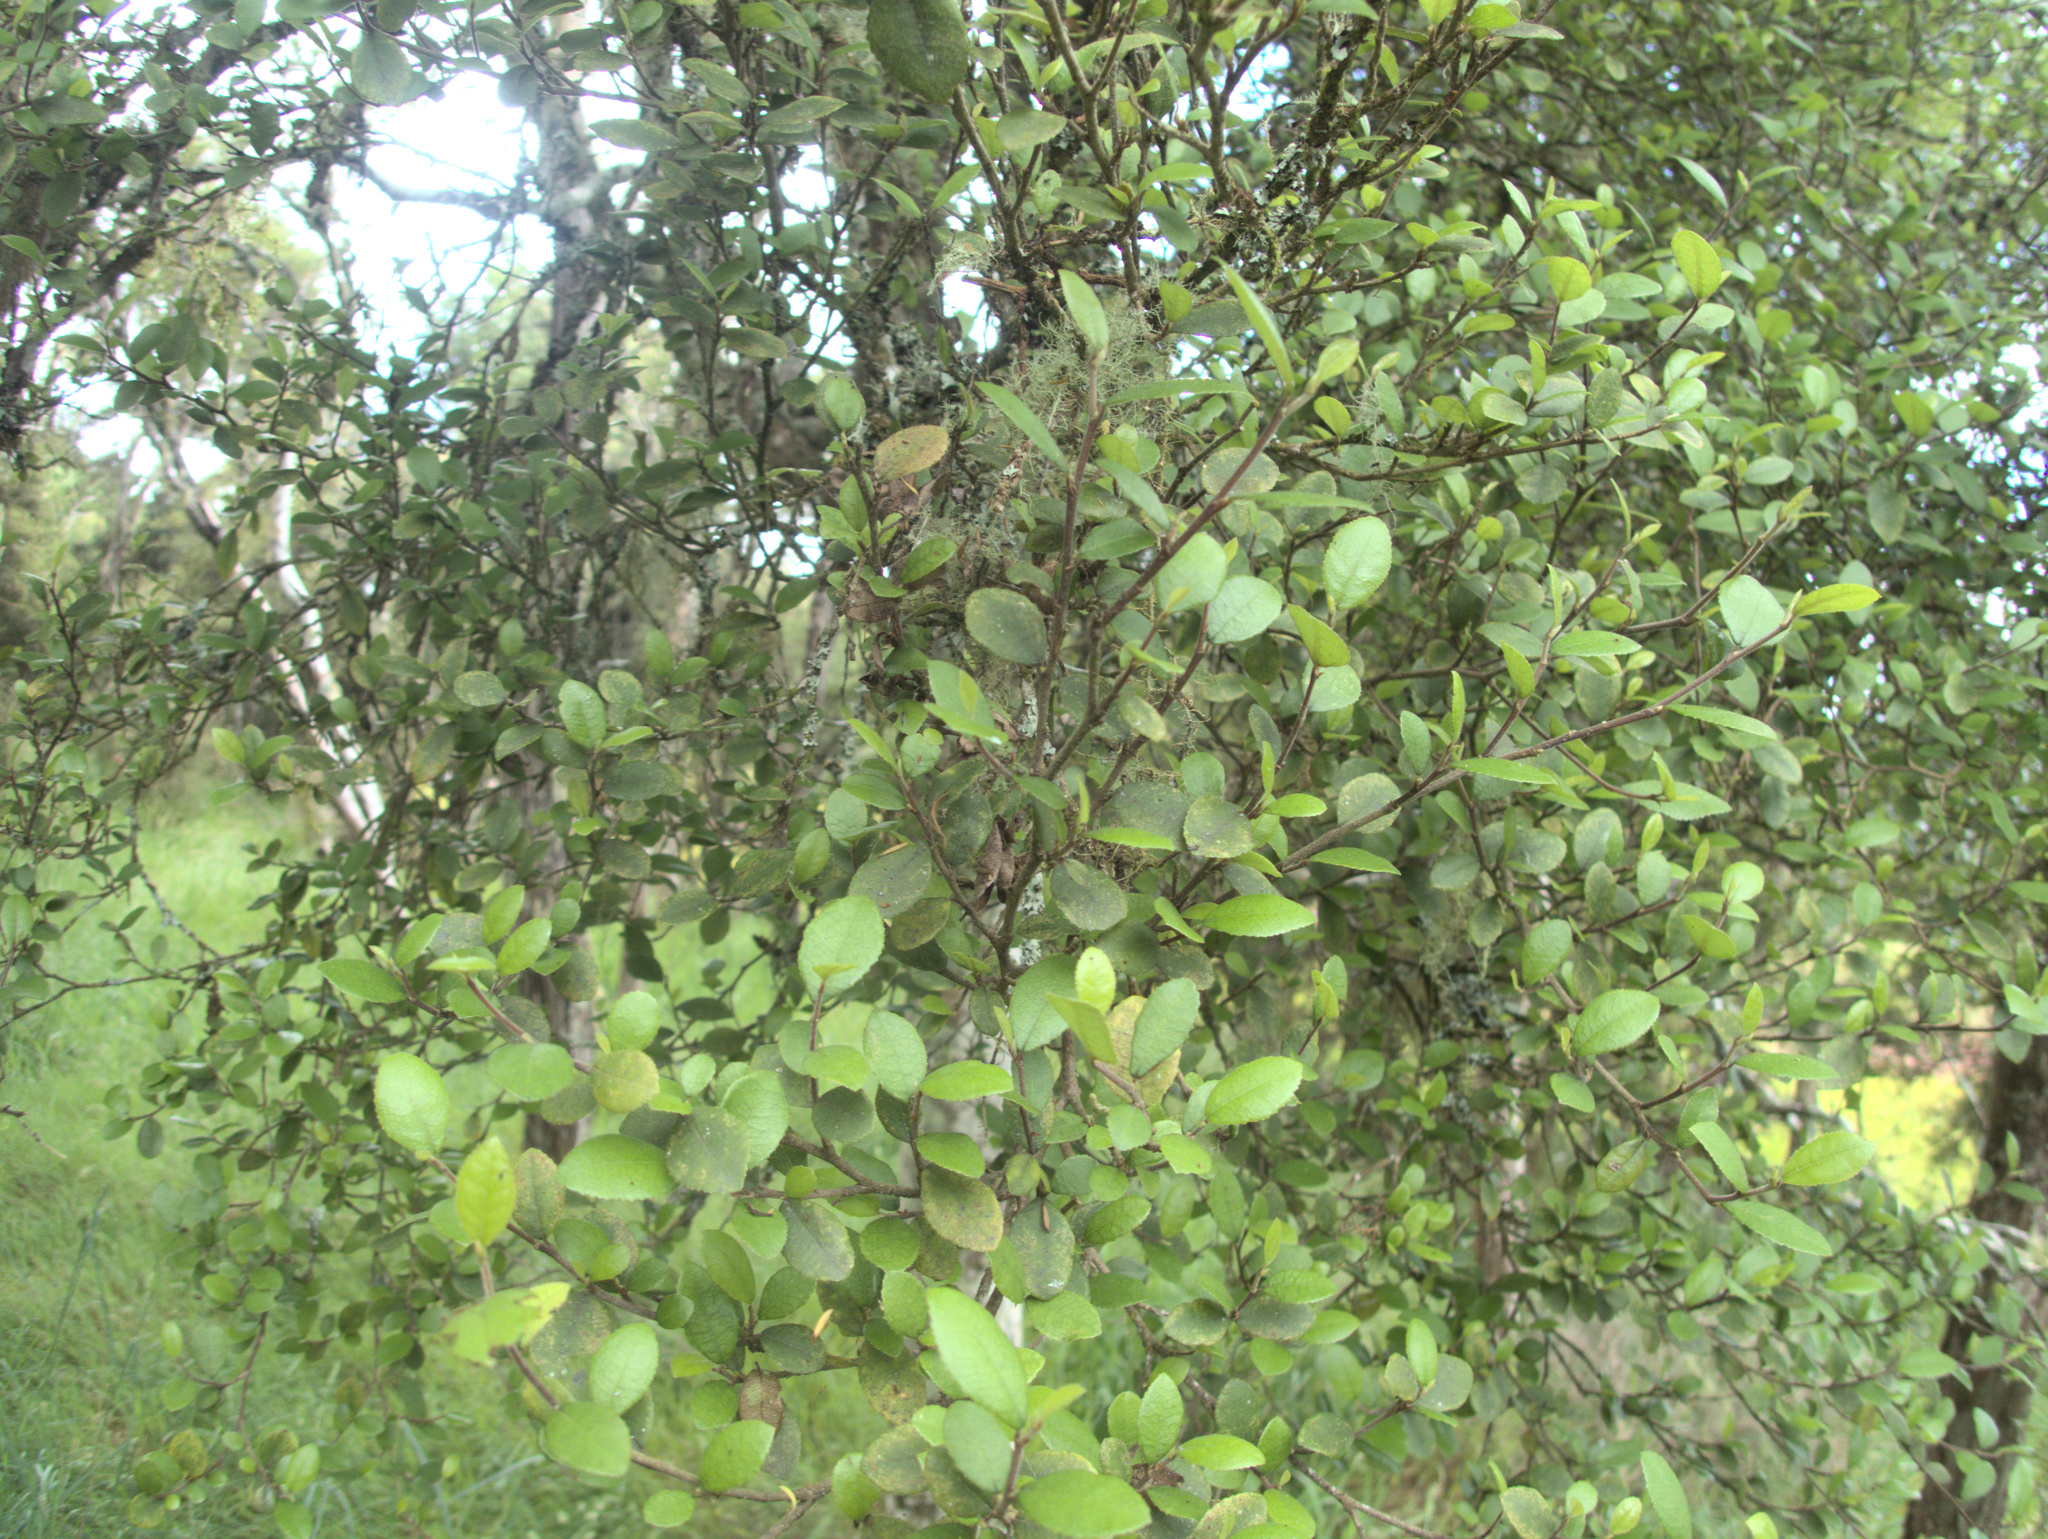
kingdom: Plantae
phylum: Tracheophyta
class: Magnoliopsida
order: Rosales
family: Moraceae
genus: Paratrophis
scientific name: Paratrophis microphylla
